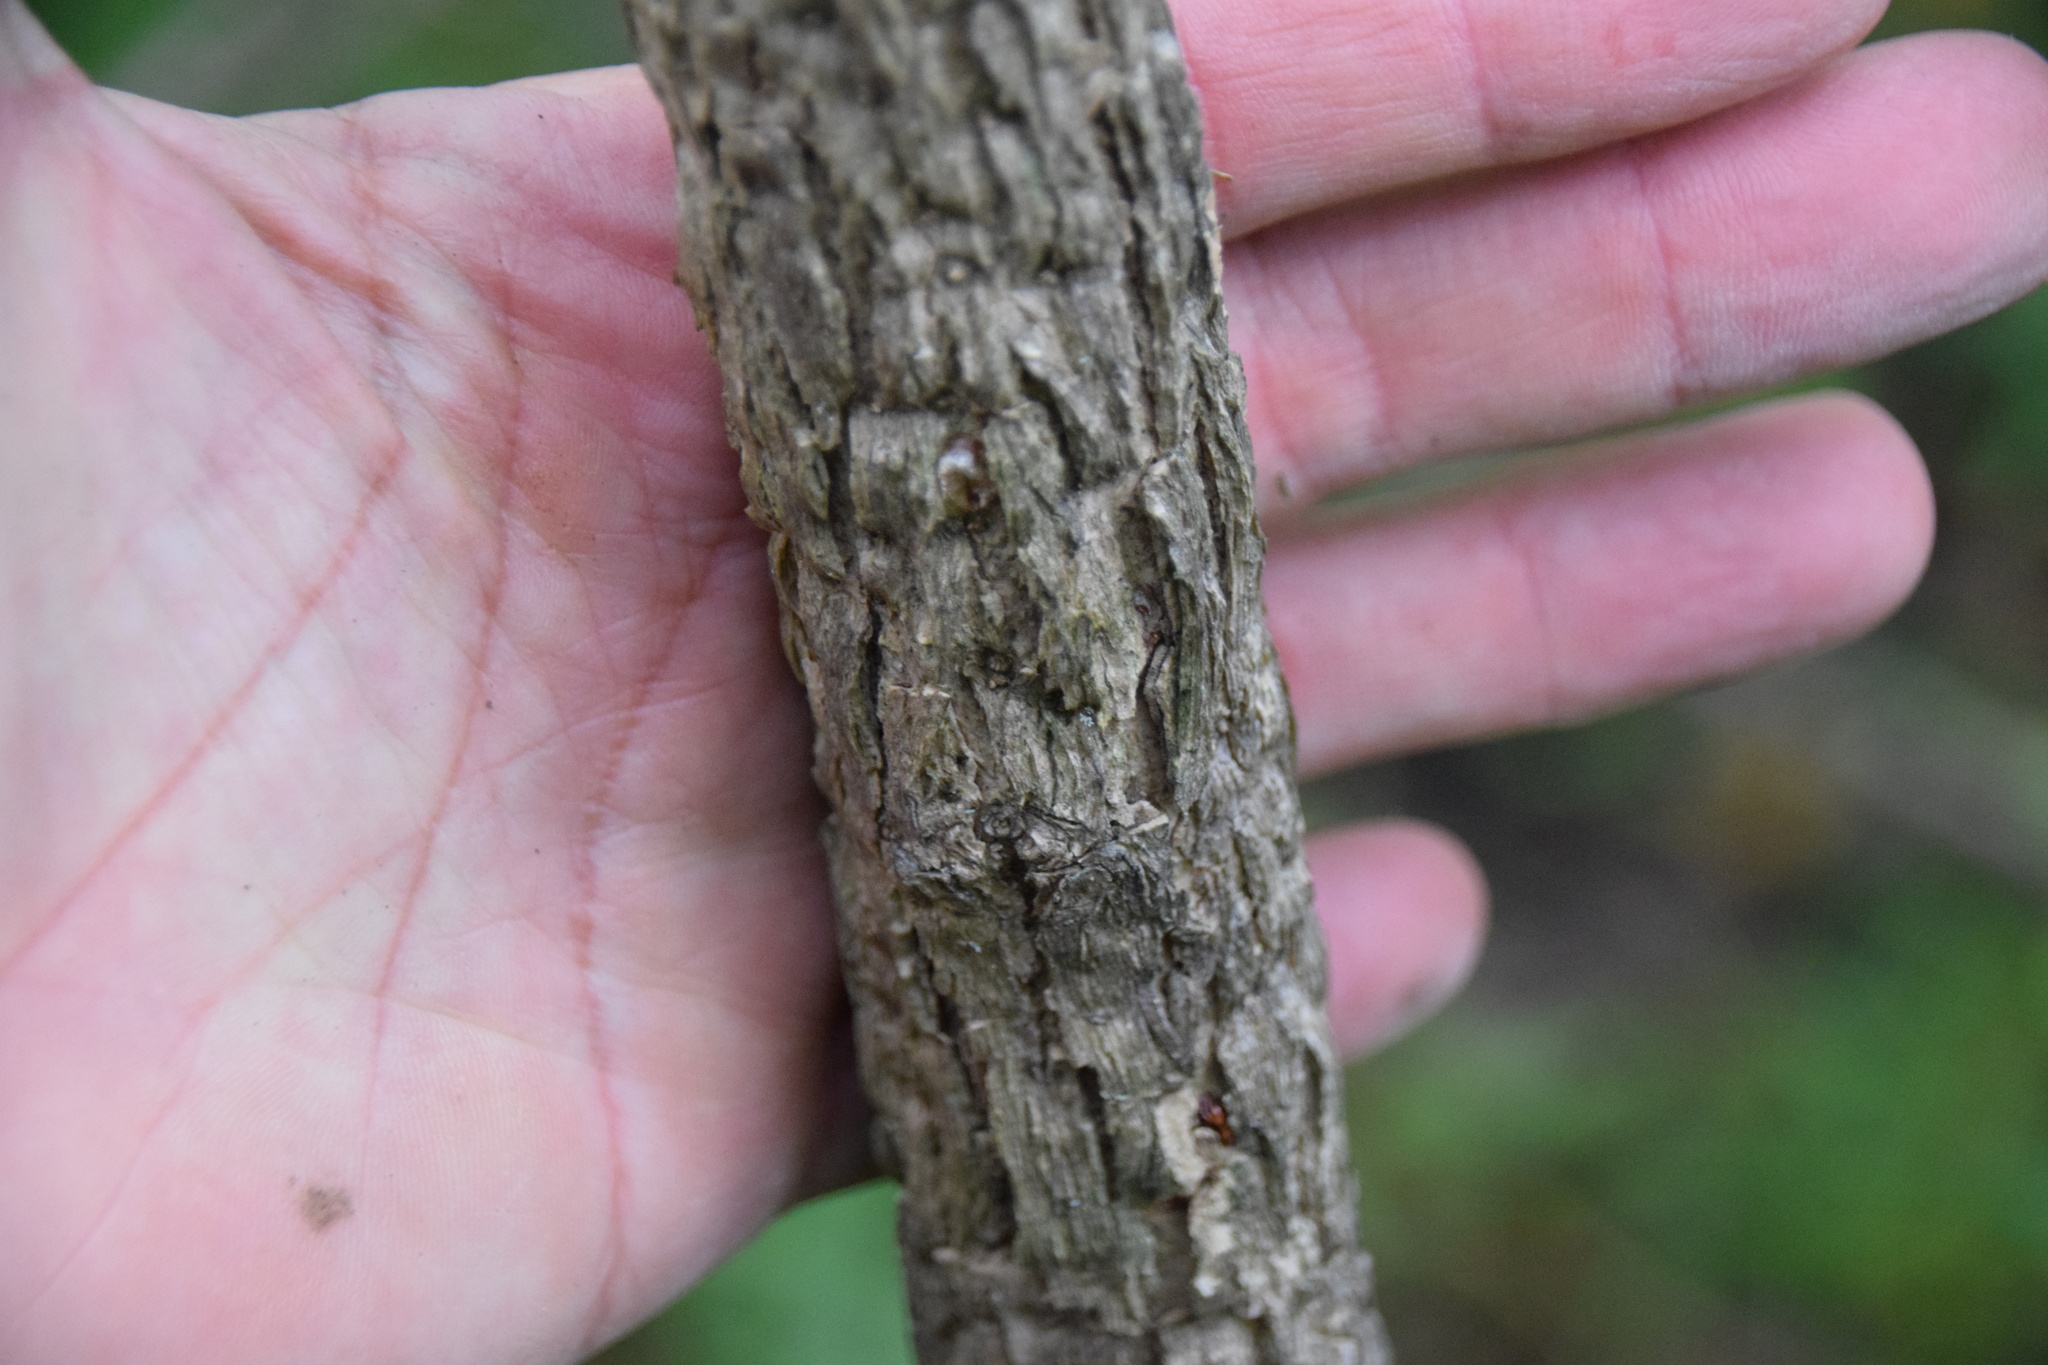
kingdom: Plantae
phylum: Tracheophyta
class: Magnoliopsida
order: Lamiales
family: Oleaceae
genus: Fraxinus
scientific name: Fraxinus nigra
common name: Black ash
